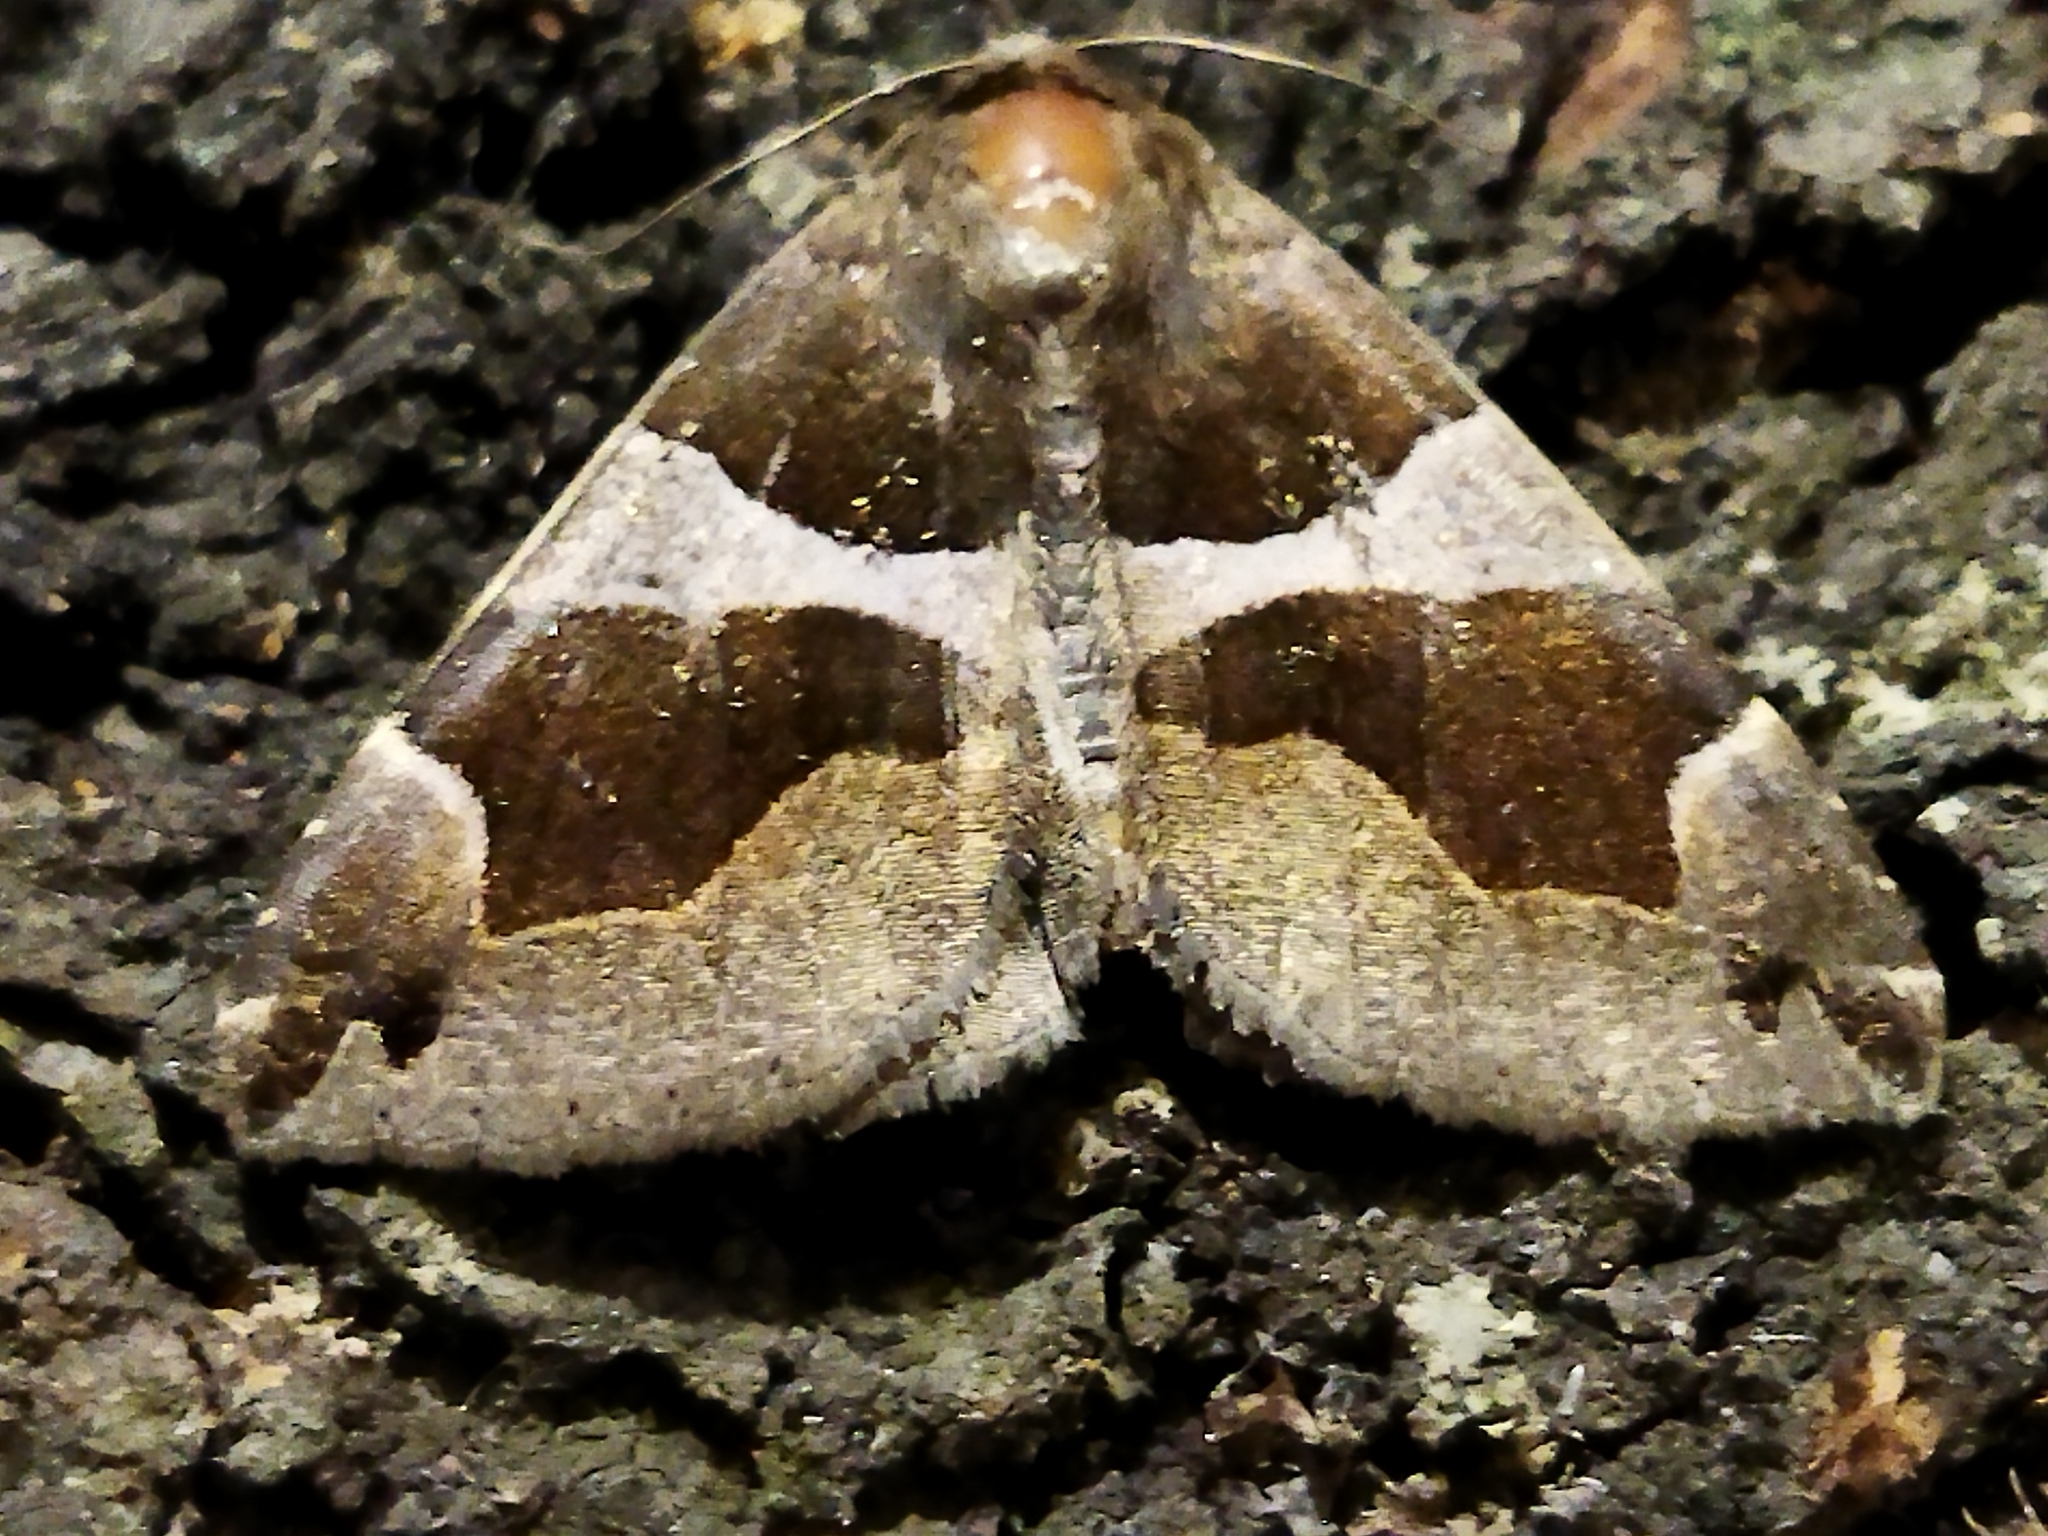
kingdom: Animalia
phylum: Arthropoda
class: Insecta
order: Lepidoptera
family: Erebidae
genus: Dysgonia
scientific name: Dysgonia algira
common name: Passenger
